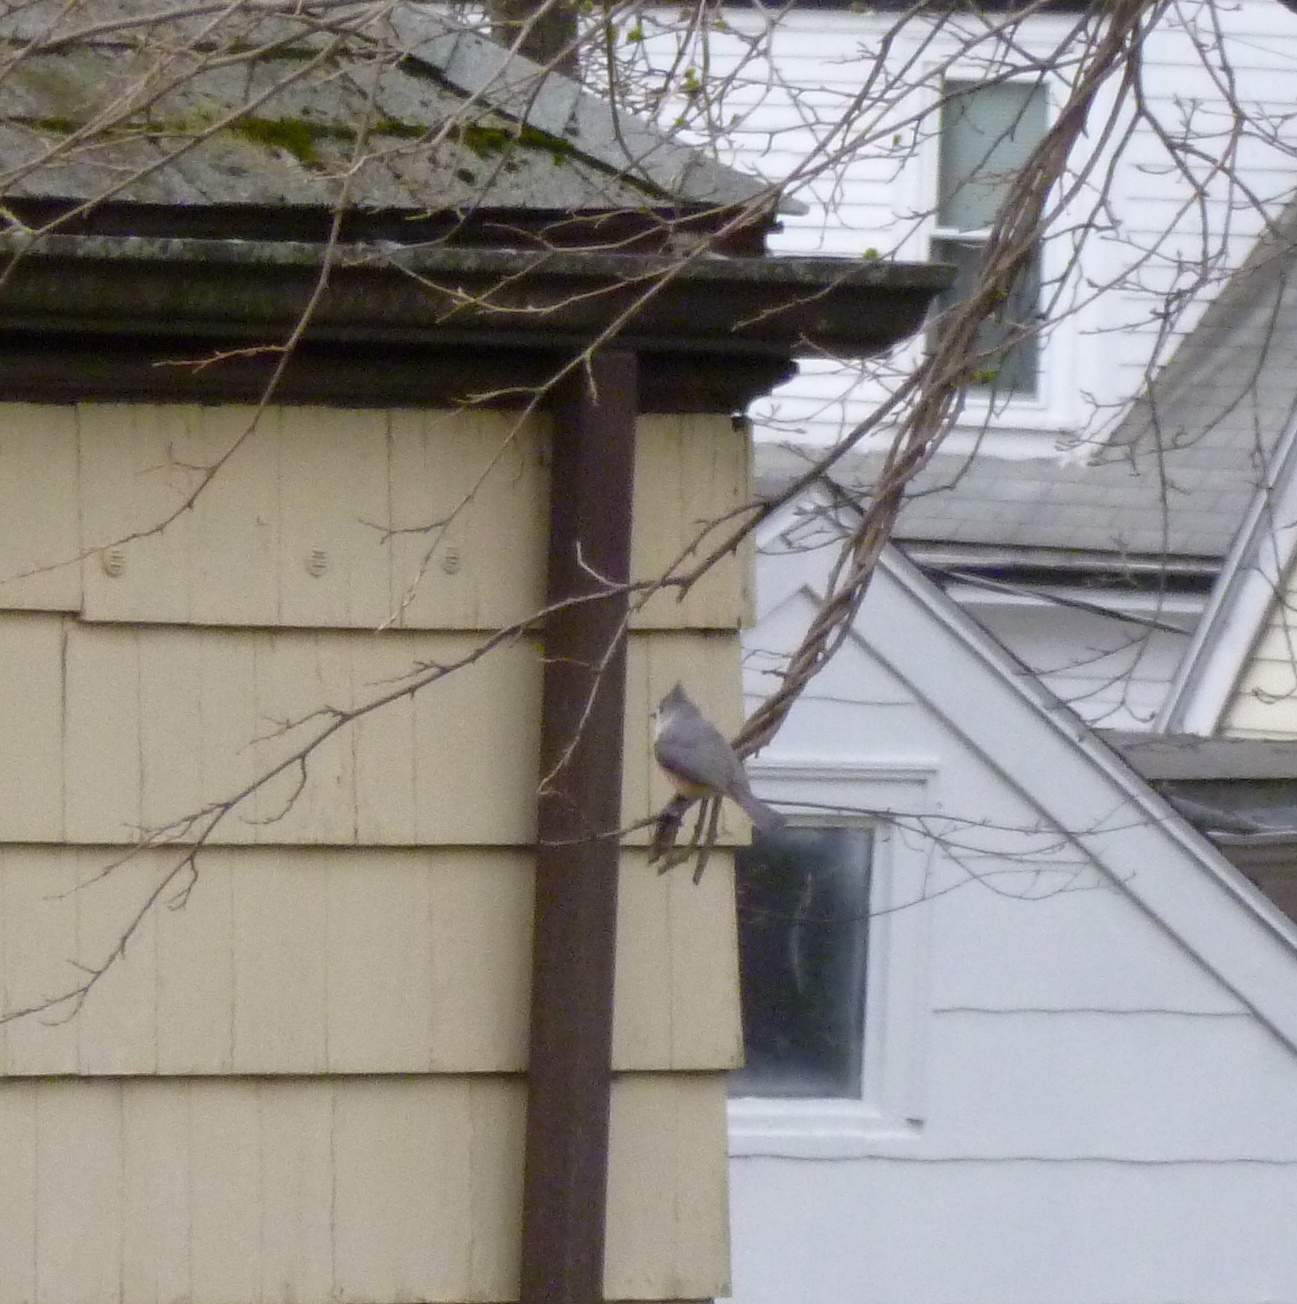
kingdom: Animalia
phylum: Chordata
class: Aves
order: Passeriformes
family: Paridae
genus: Baeolophus
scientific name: Baeolophus bicolor
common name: Tufted titmouse
